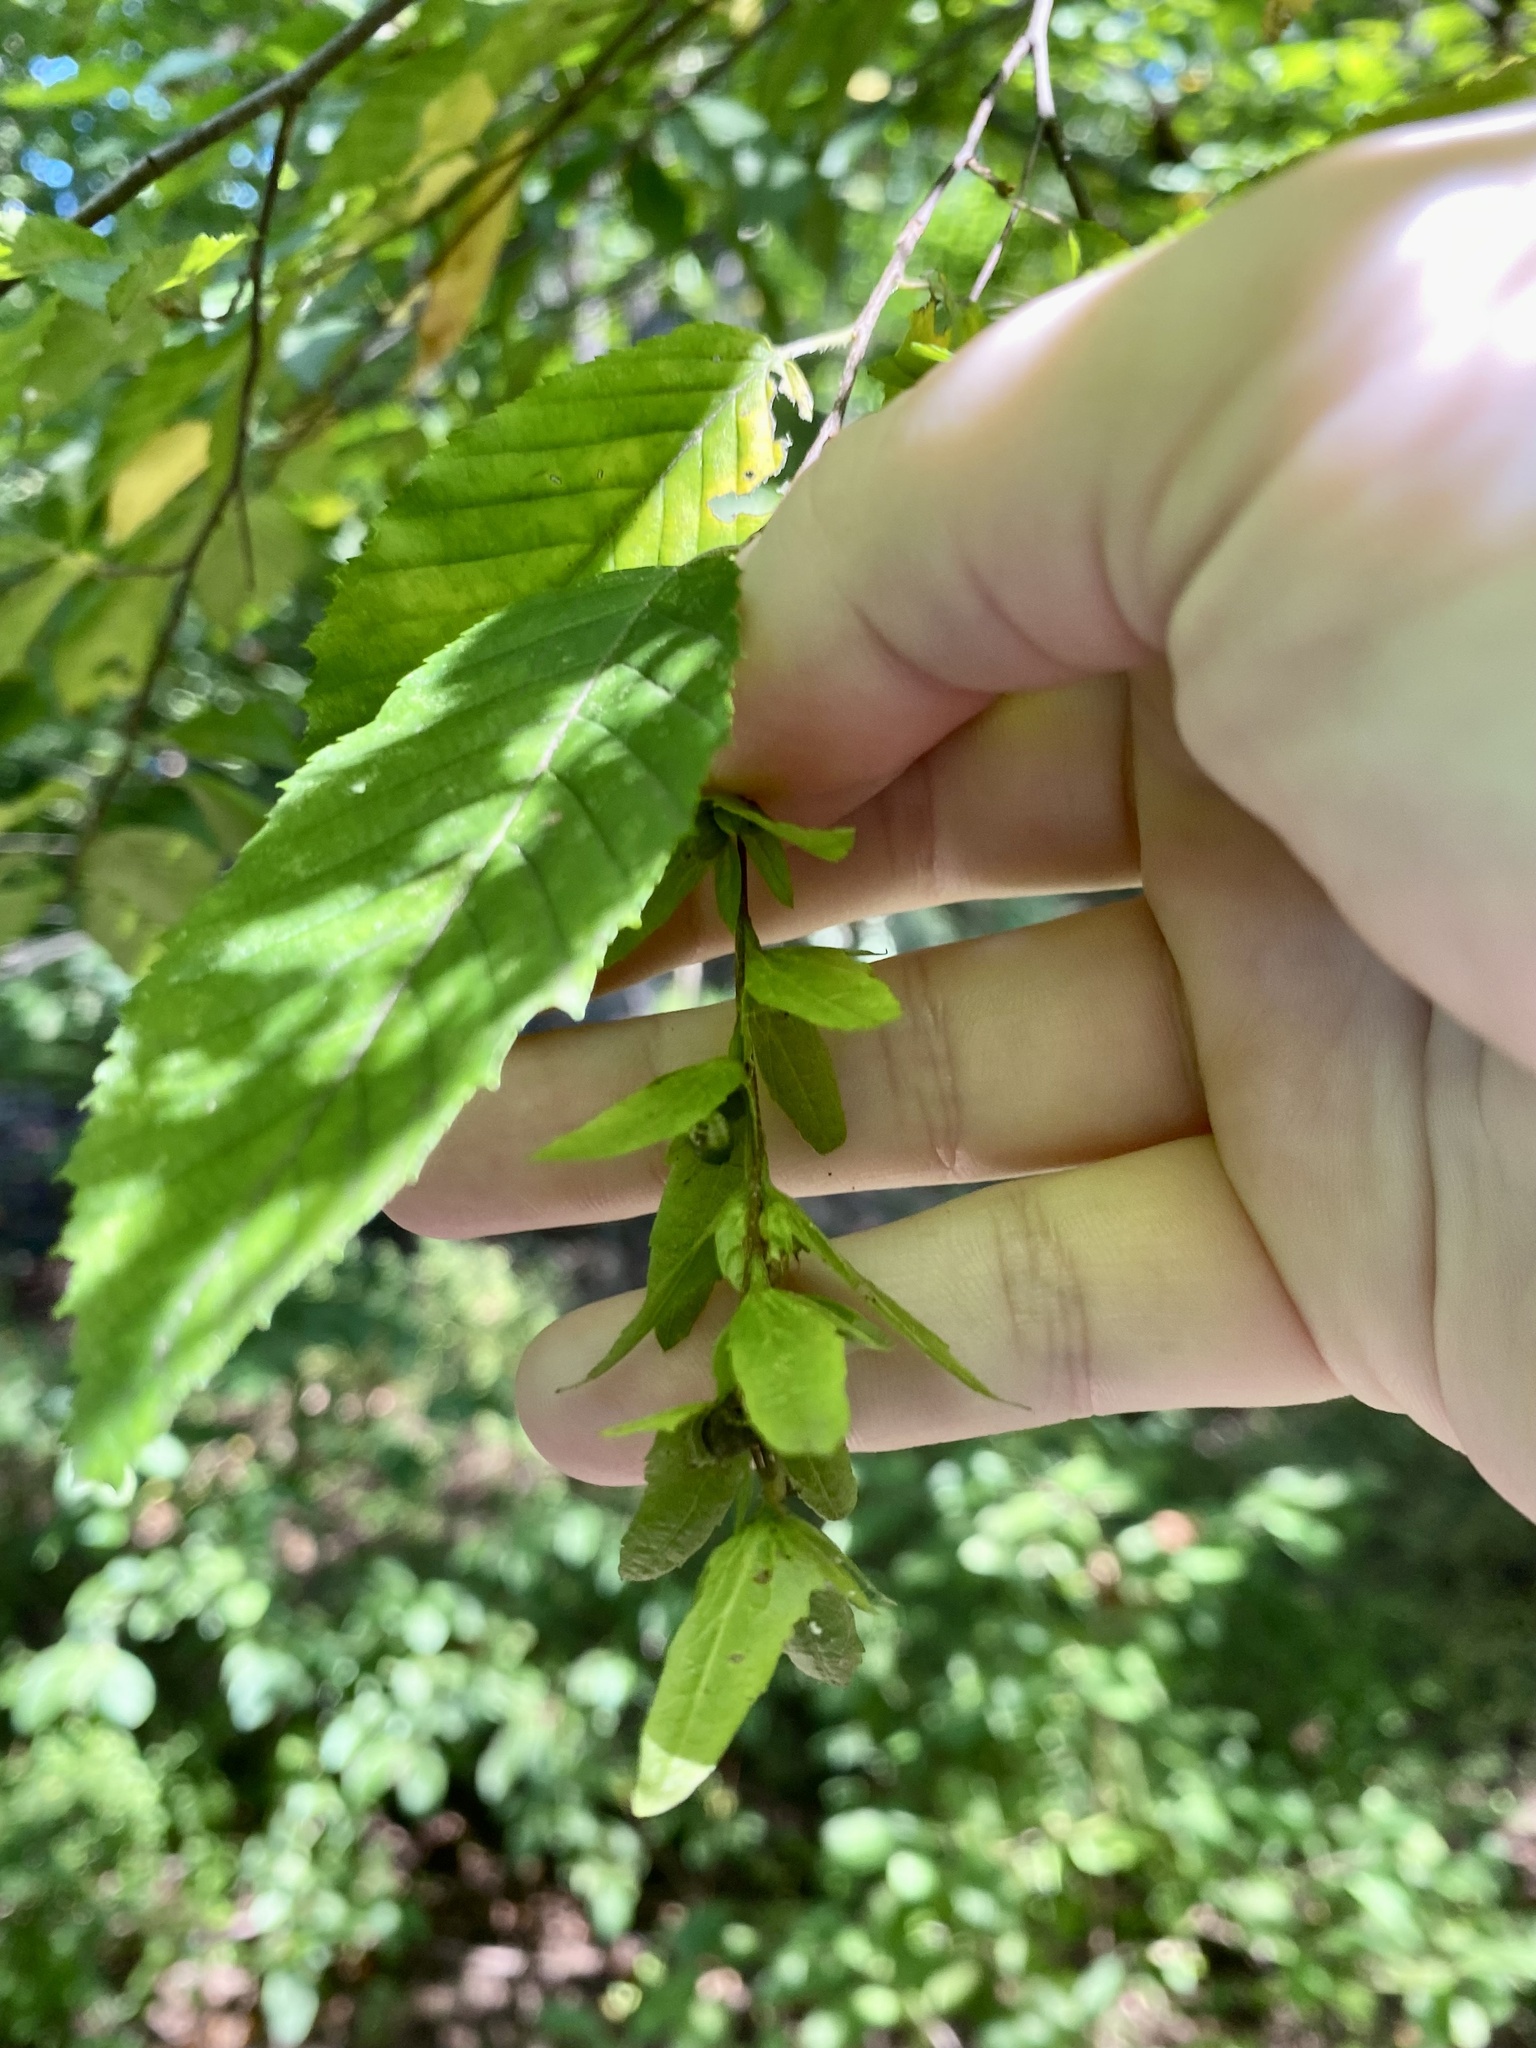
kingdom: Plantae
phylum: Tracheophyta
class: Magnoliopsida
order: Fagales
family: Betulaceae
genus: Carpinus
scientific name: Carpinus caroliniana
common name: American hornbeam
